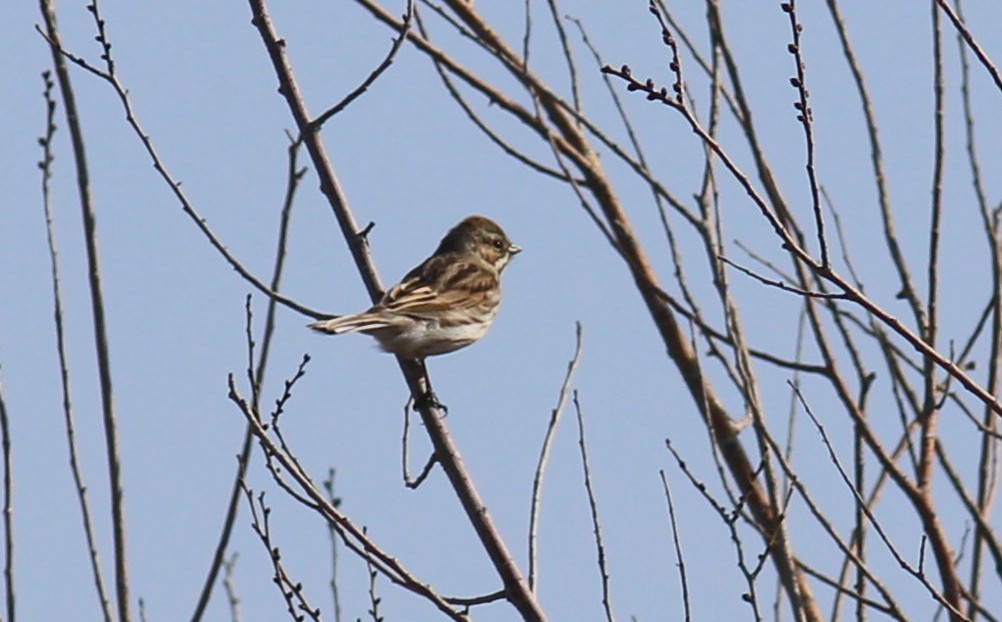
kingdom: Animalia
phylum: Chordata
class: Aves
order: Passeriformes
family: Emberizidae
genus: Emberiza
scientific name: Emberiza schoeniclus
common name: Reed bunting
